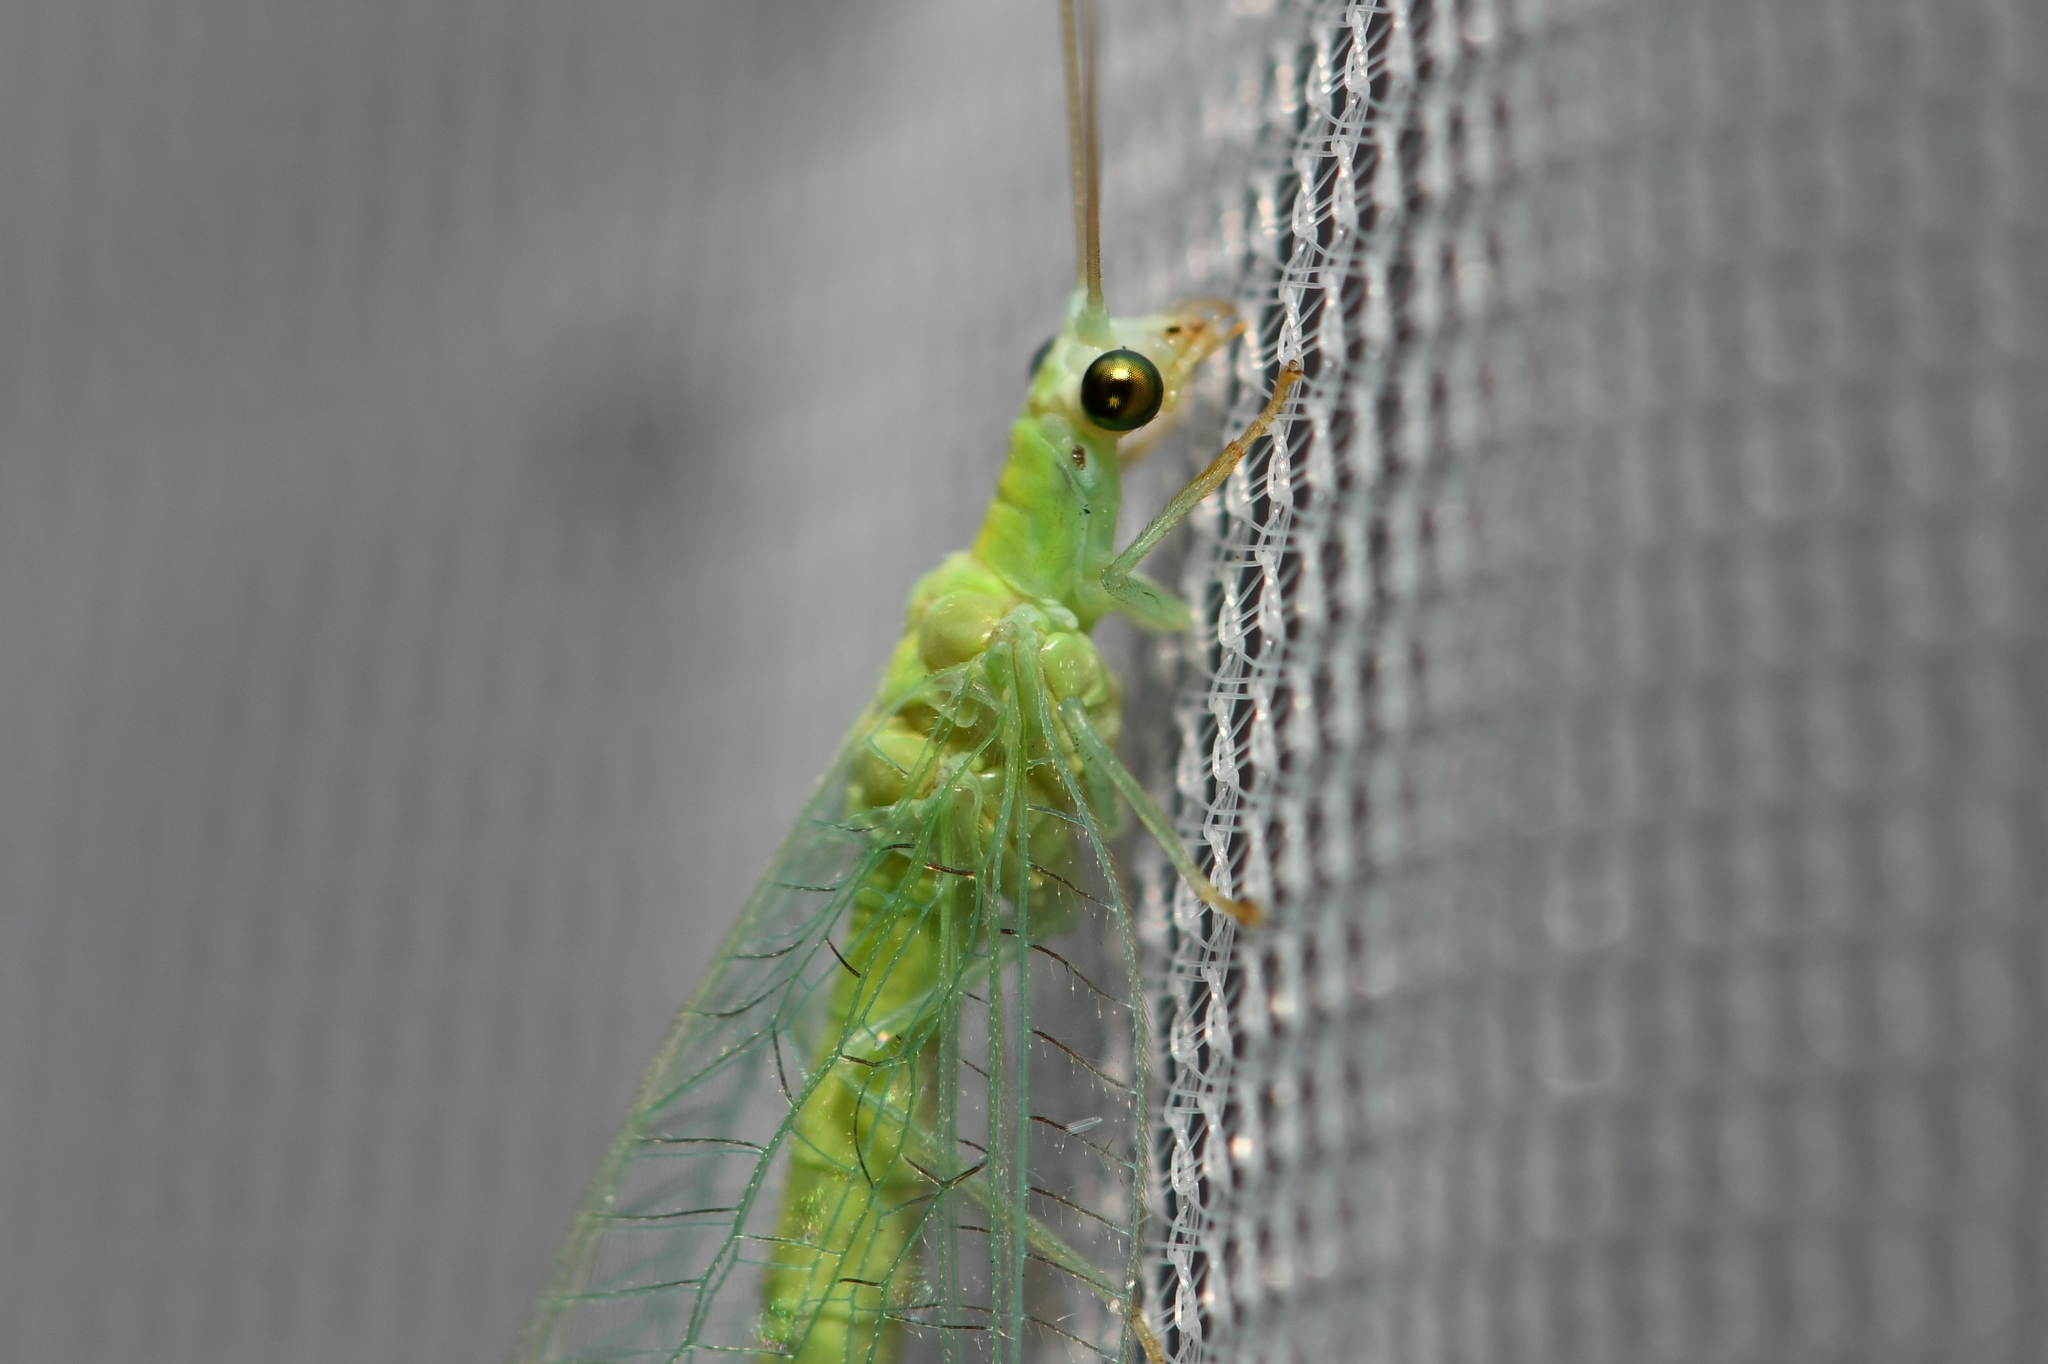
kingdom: Animalia
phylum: Arthropoda
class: Insecta
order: Neuroptera
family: Chrysopidae
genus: Chrysopa
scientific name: Chrysopa nigricornis
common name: Black-horned green lacewing
